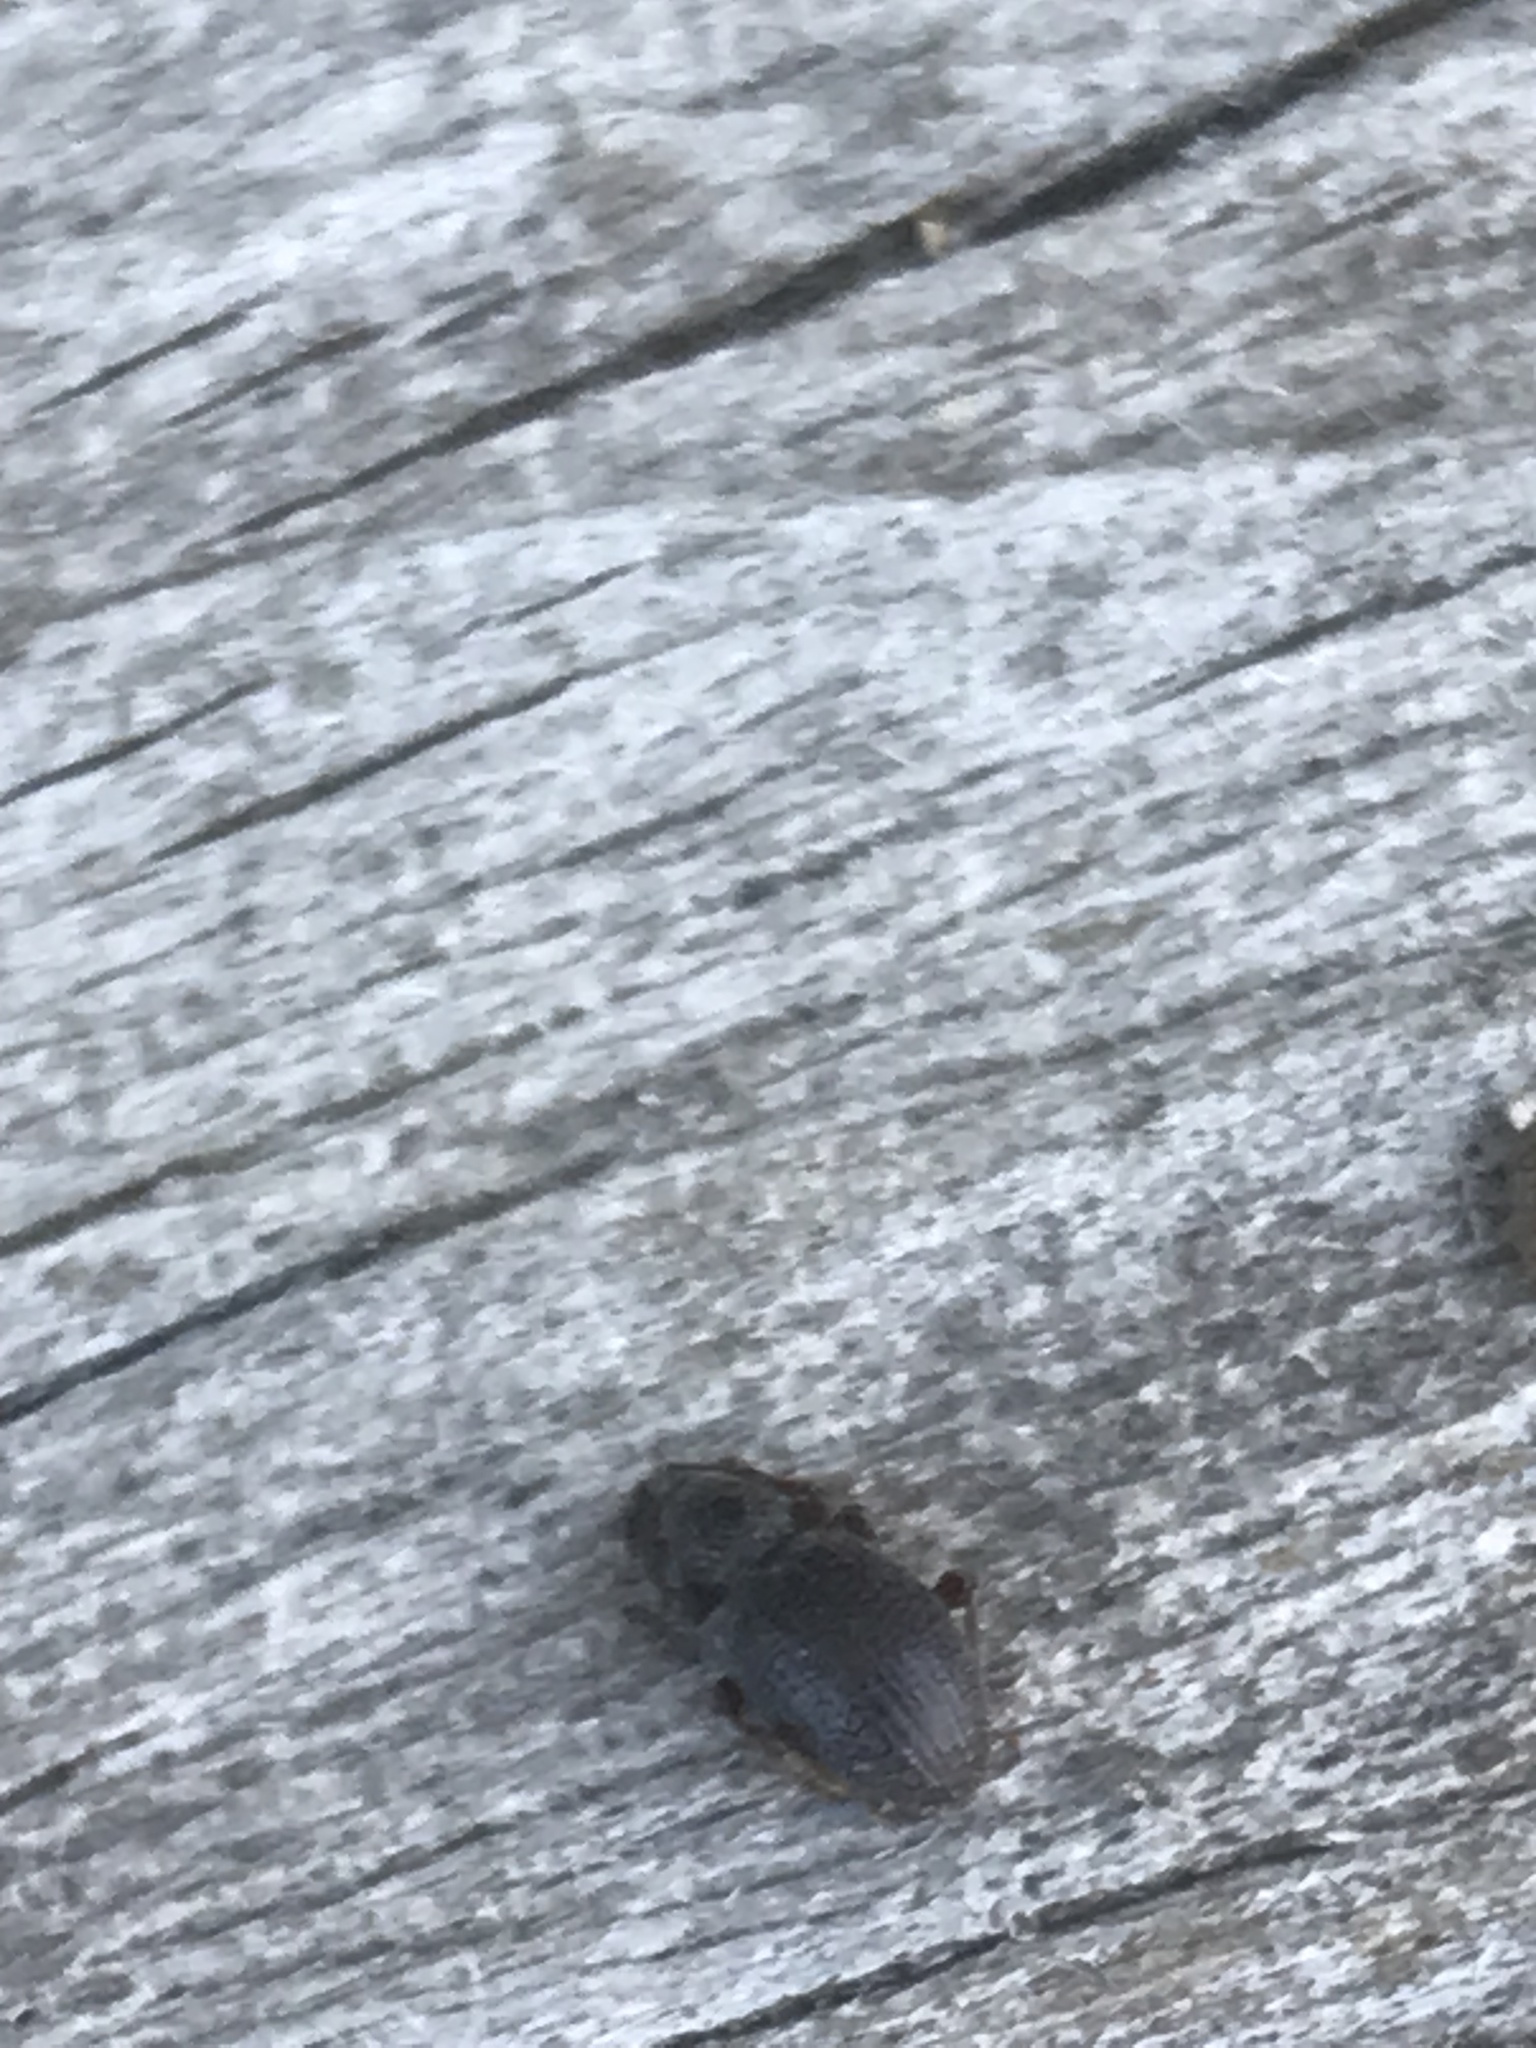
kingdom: Animalia
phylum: Arthropoda
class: Insecta
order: Coleoptera
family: Curculionidae
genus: Otiorhynchus
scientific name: Otiorhynchus ovatus
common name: Strawberry root weevil
